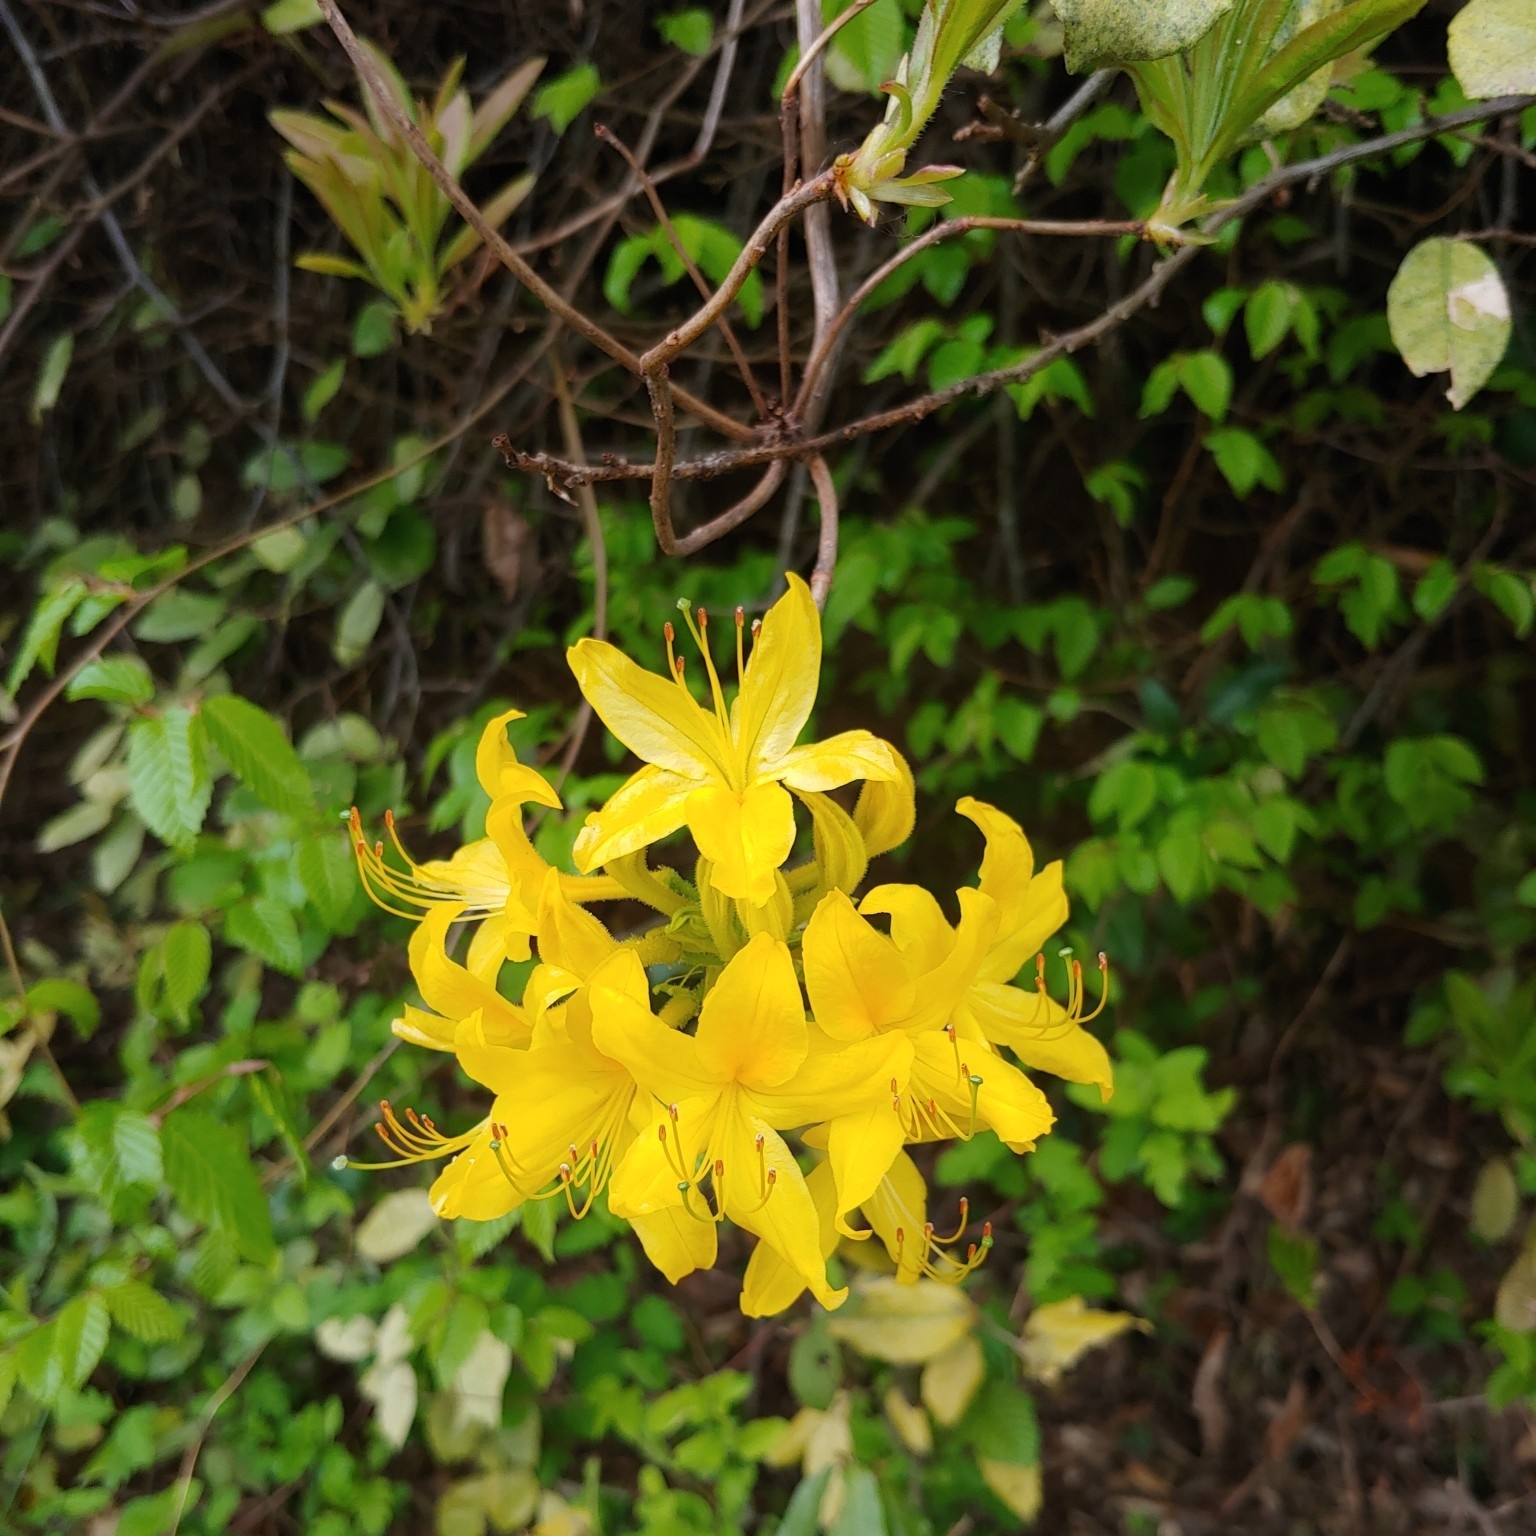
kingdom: Plantae
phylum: Tracheophyta
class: Magnoliopsida
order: Ericales
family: Ericaceae
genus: Rhododendron
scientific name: Rhododendron luteum
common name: Yellow azalea
